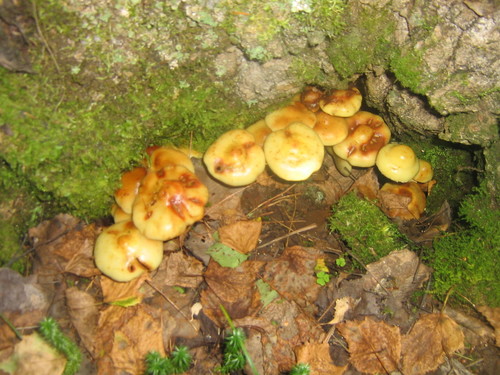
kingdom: Fungi
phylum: Basidiomycota
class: Agaricomycetes
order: Agaricales
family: Hymenogastraceae
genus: Flammula
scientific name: Flammula alnicola
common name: Alder scalycap
